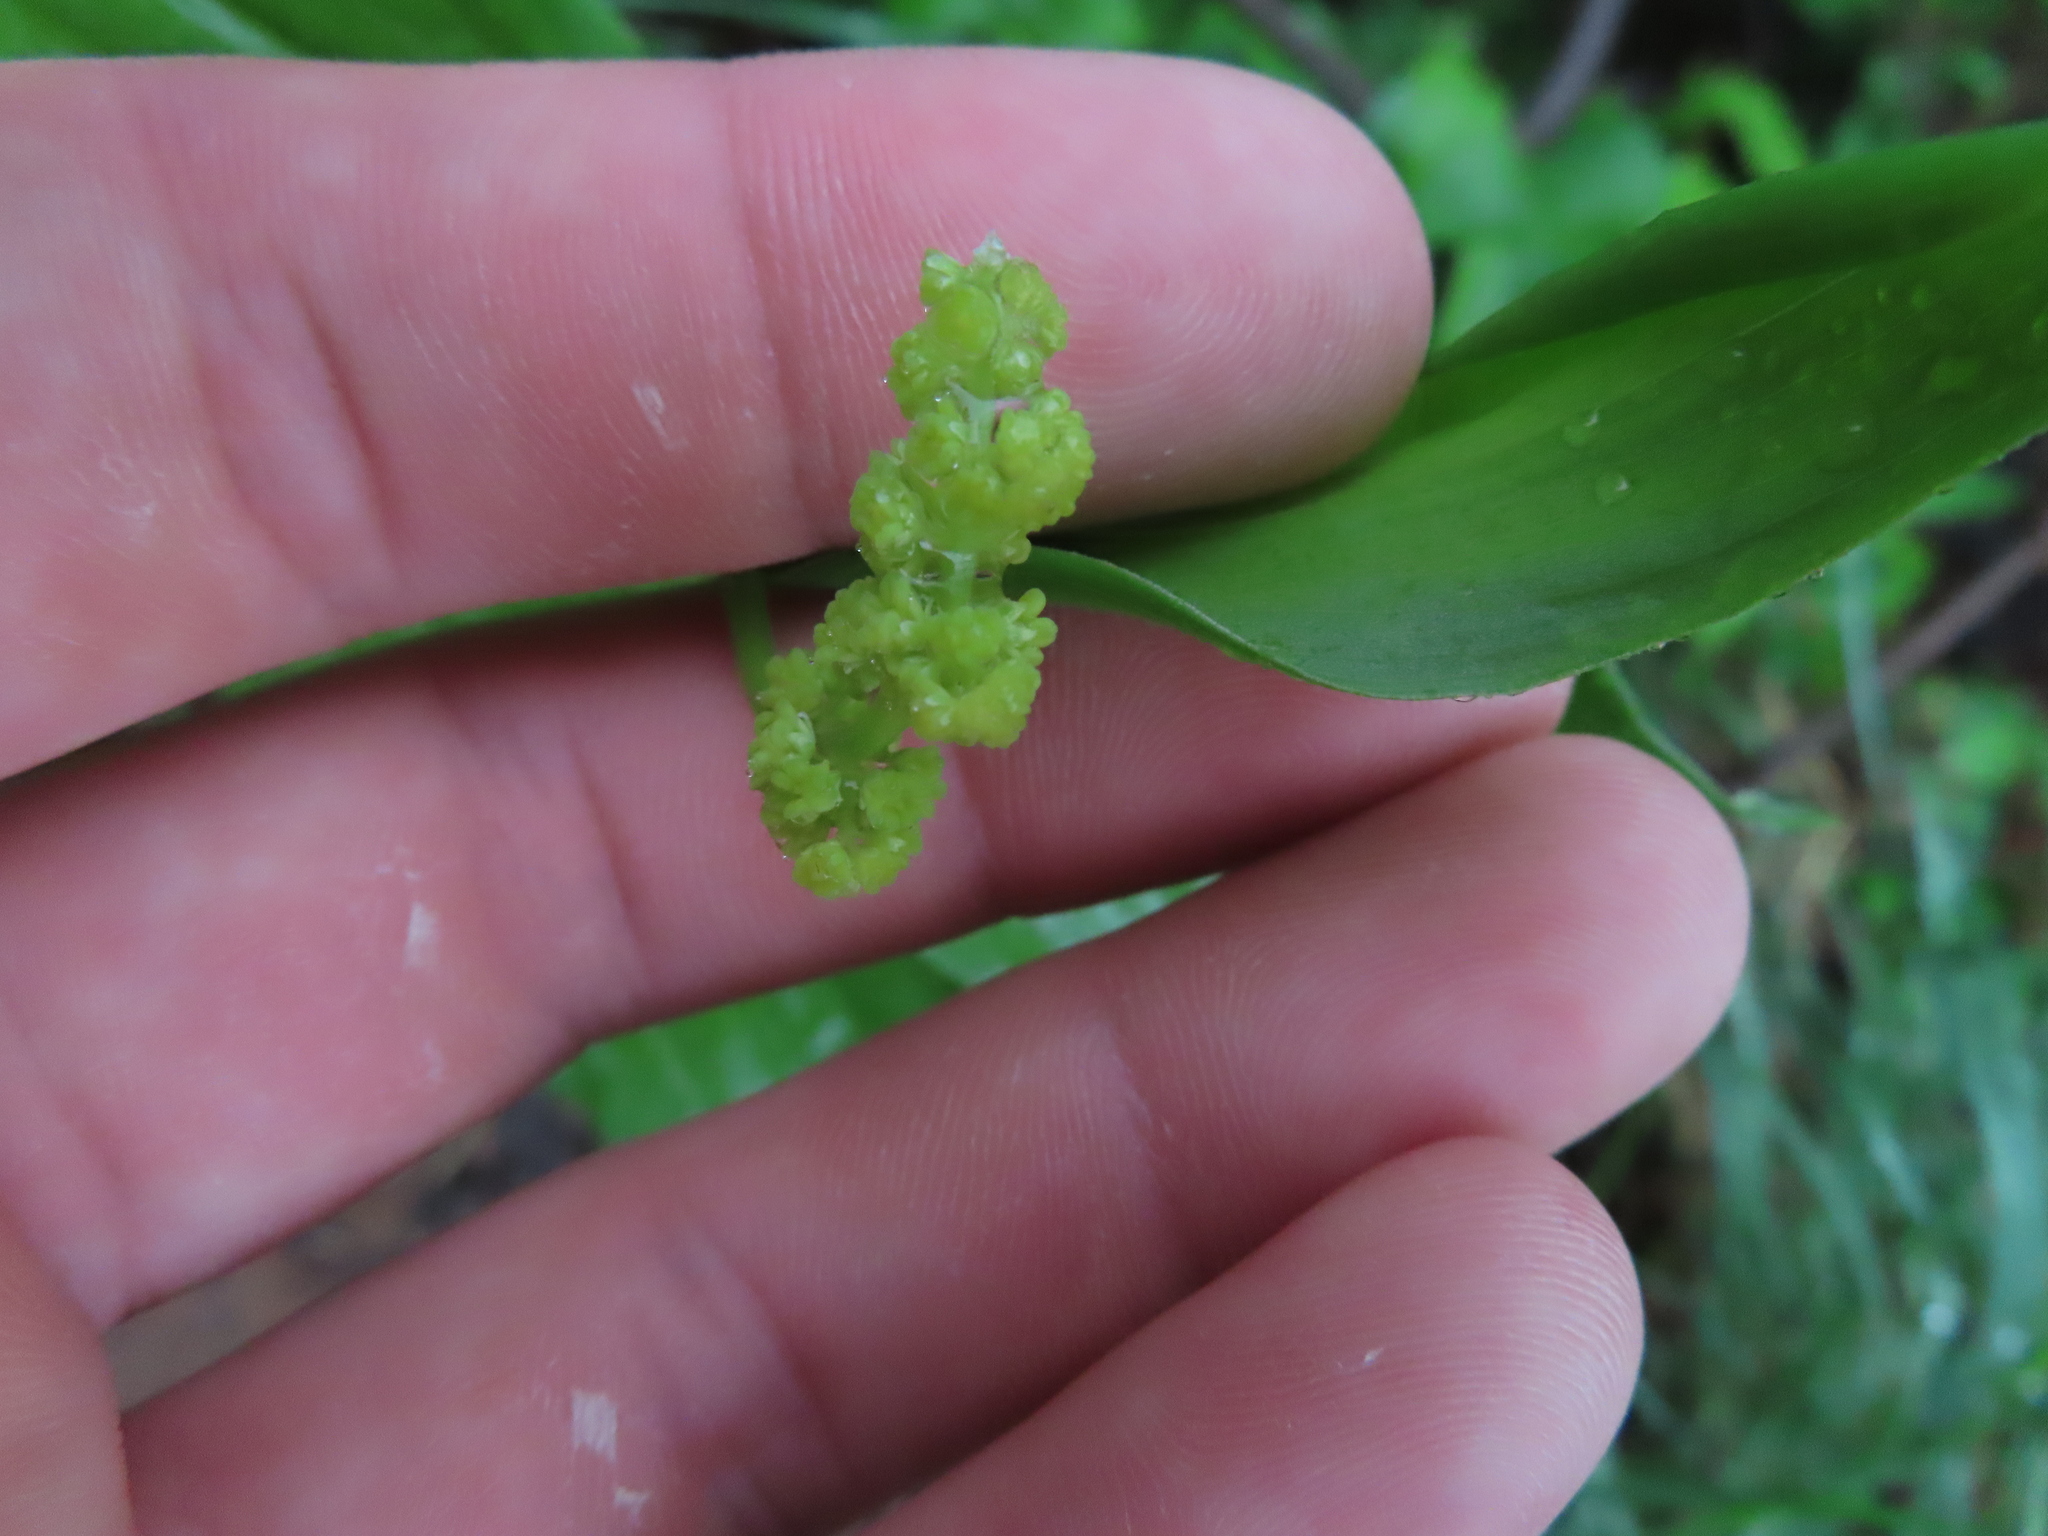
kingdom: Plantae
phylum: Tracheophyta
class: Liliopsida
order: Asparagales
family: Asparagaceae
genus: Maianthemum
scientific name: Maianthemum racemosum
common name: False spikenard
